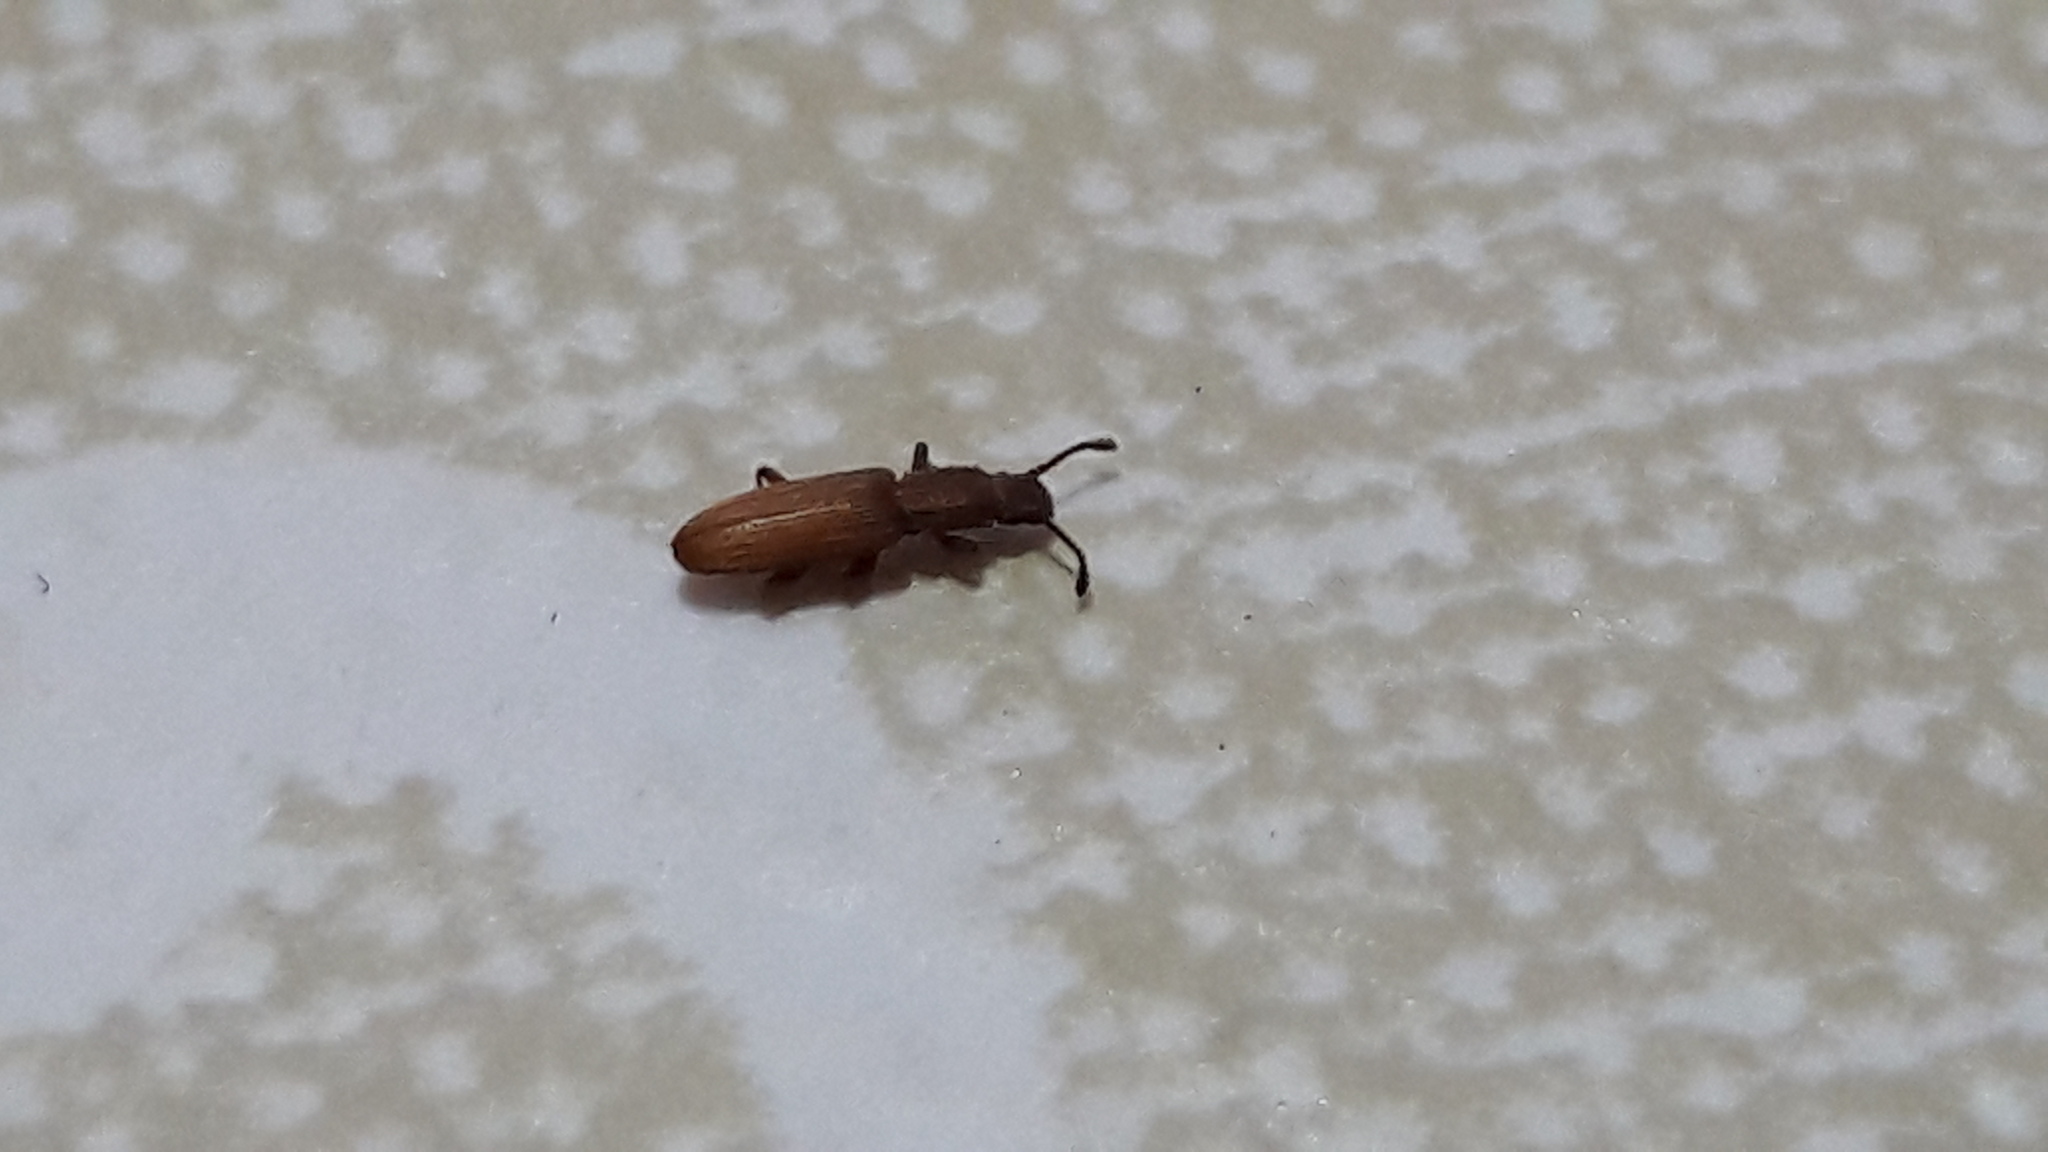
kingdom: Animalia
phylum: Arthropoda
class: Insecta
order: Coleoptera
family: Silvanidae
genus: Oryzaephilus
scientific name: Oryzaephilus surinamensis
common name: Sawtoothed grain beetle
